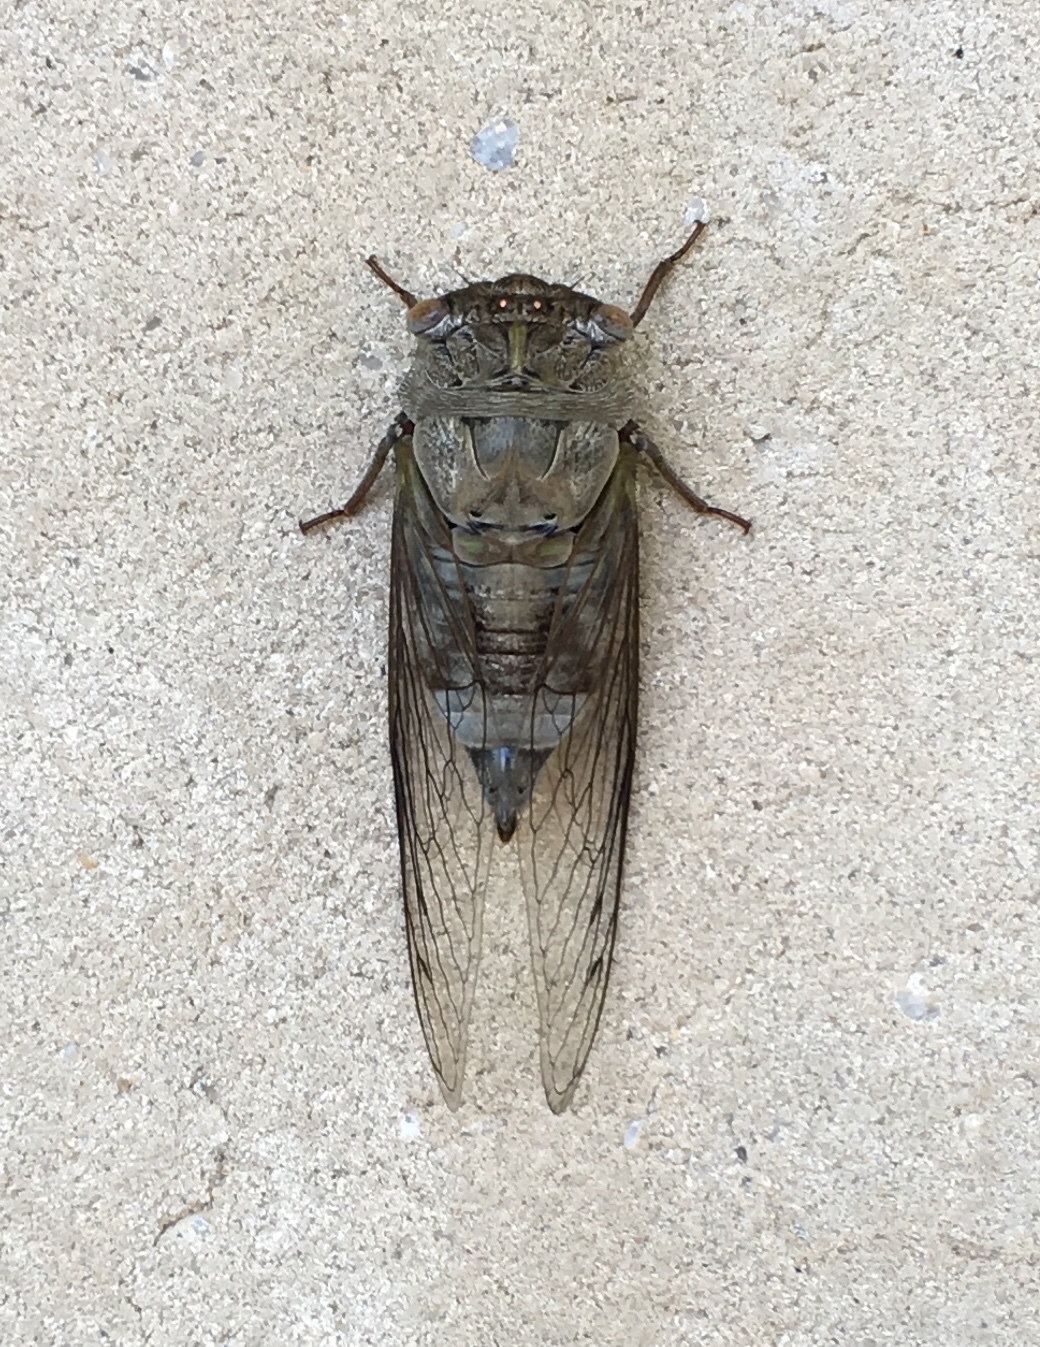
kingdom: Animalia
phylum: Arthropoda
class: Insecta
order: Hemiptera
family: Cicadidae
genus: Diceroprocta
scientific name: Diceroprocta grossa
